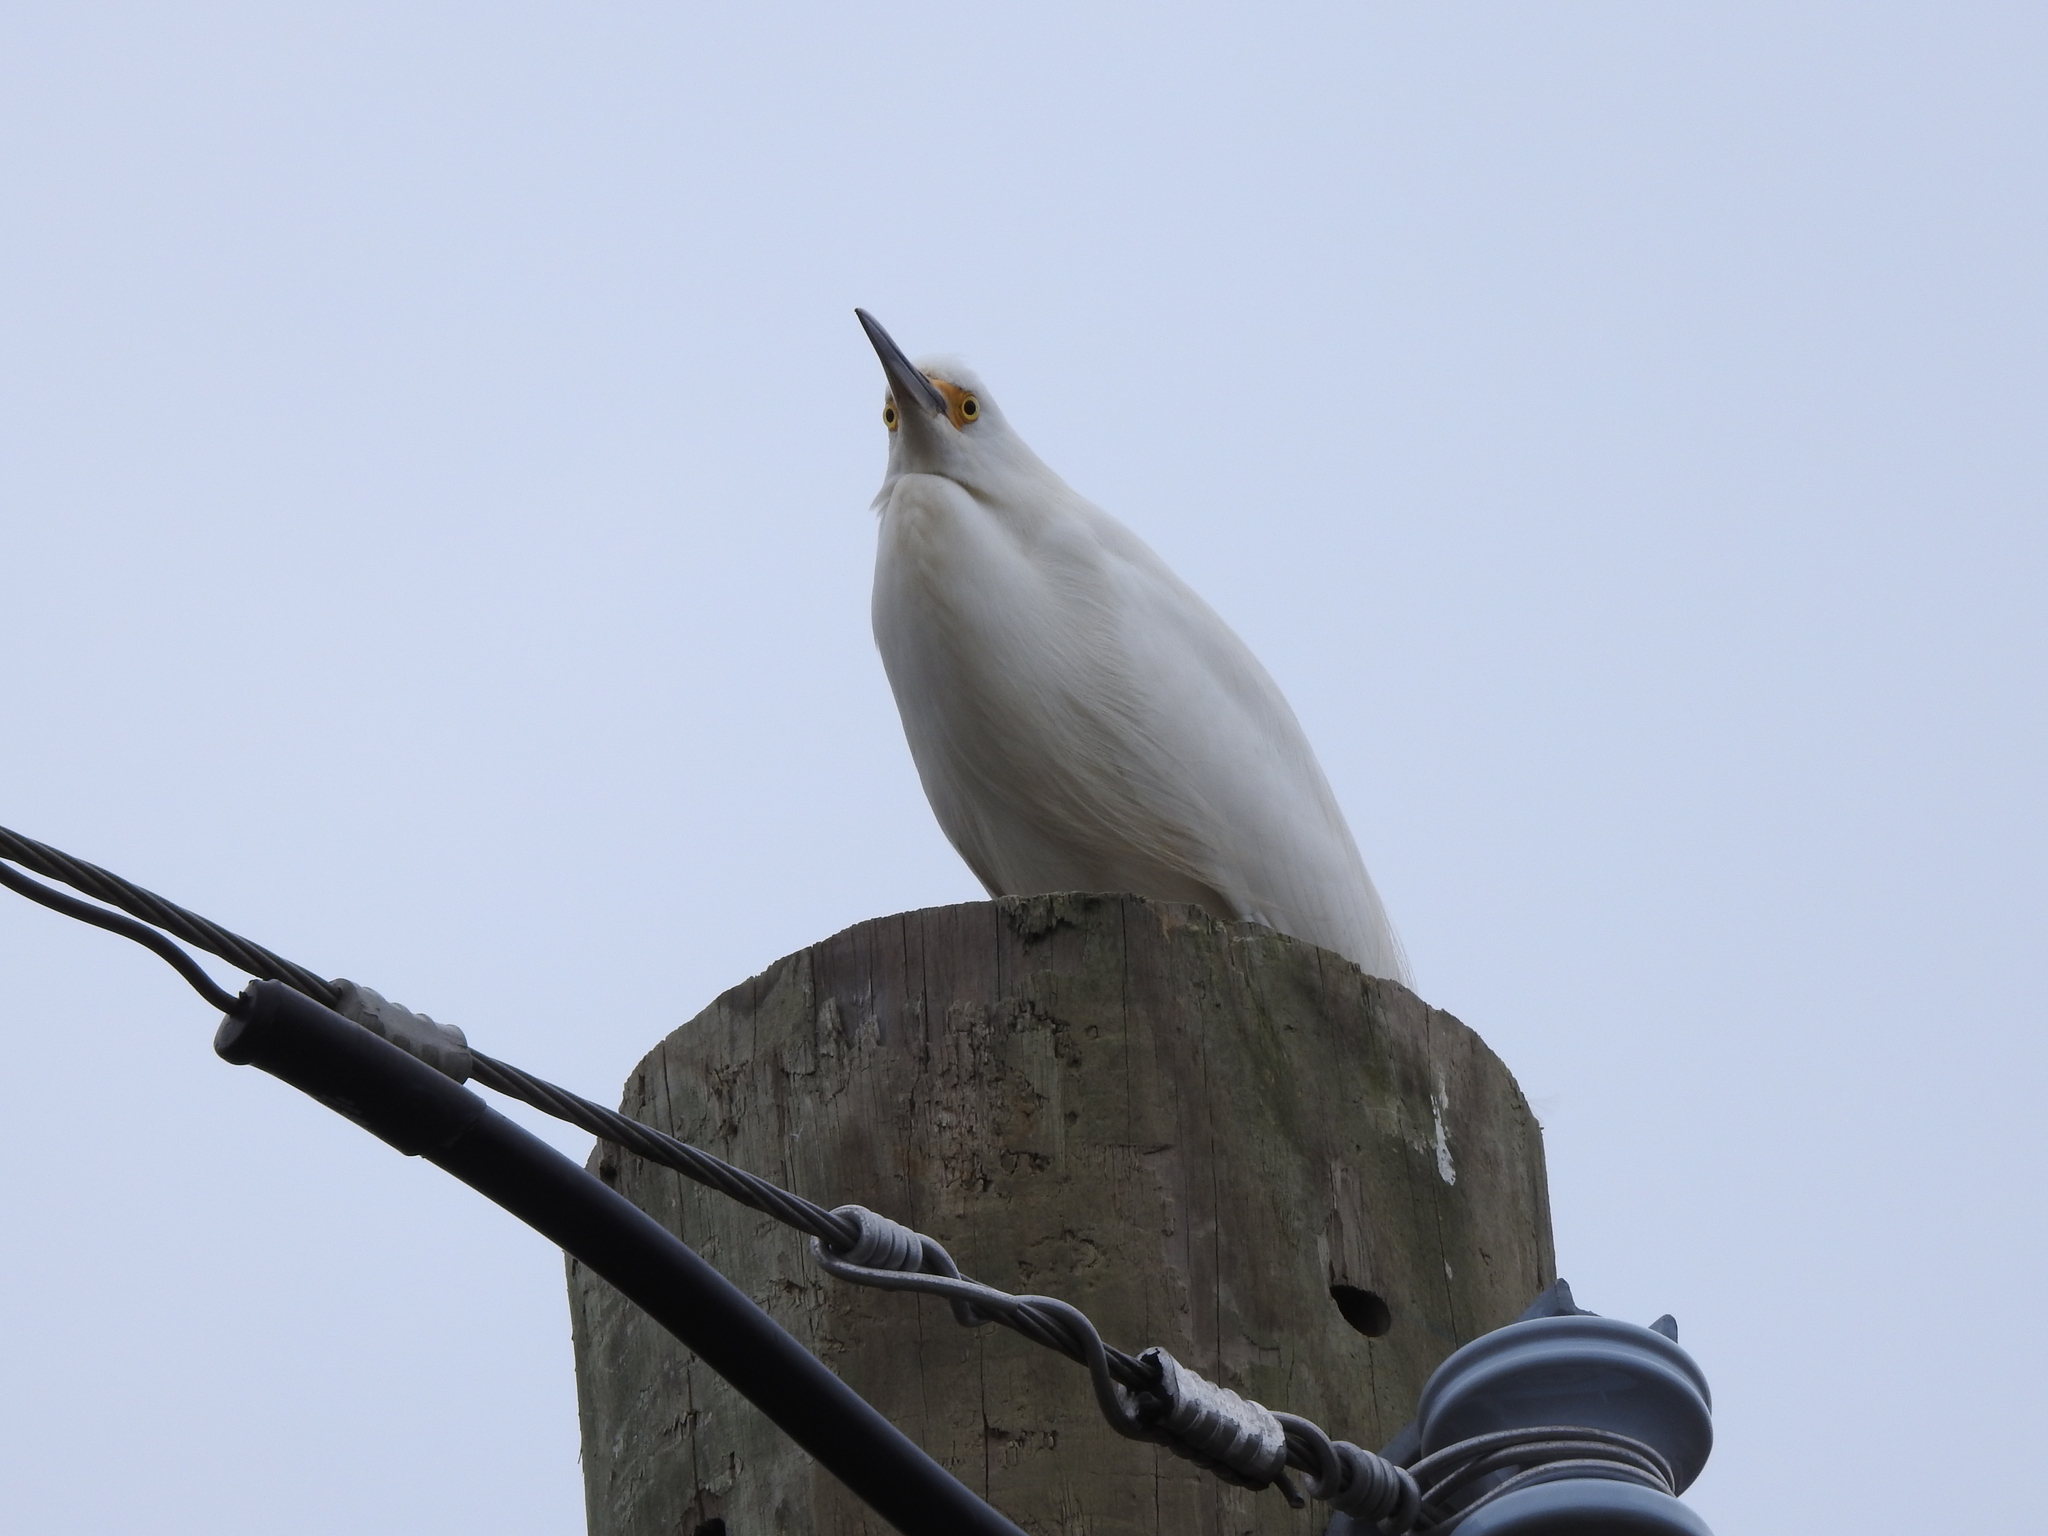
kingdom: Animalia
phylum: Chordata
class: Aves
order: Pelecaniformes
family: Ardeidae
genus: Egretta
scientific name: Egretta thula
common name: Snowy egret
